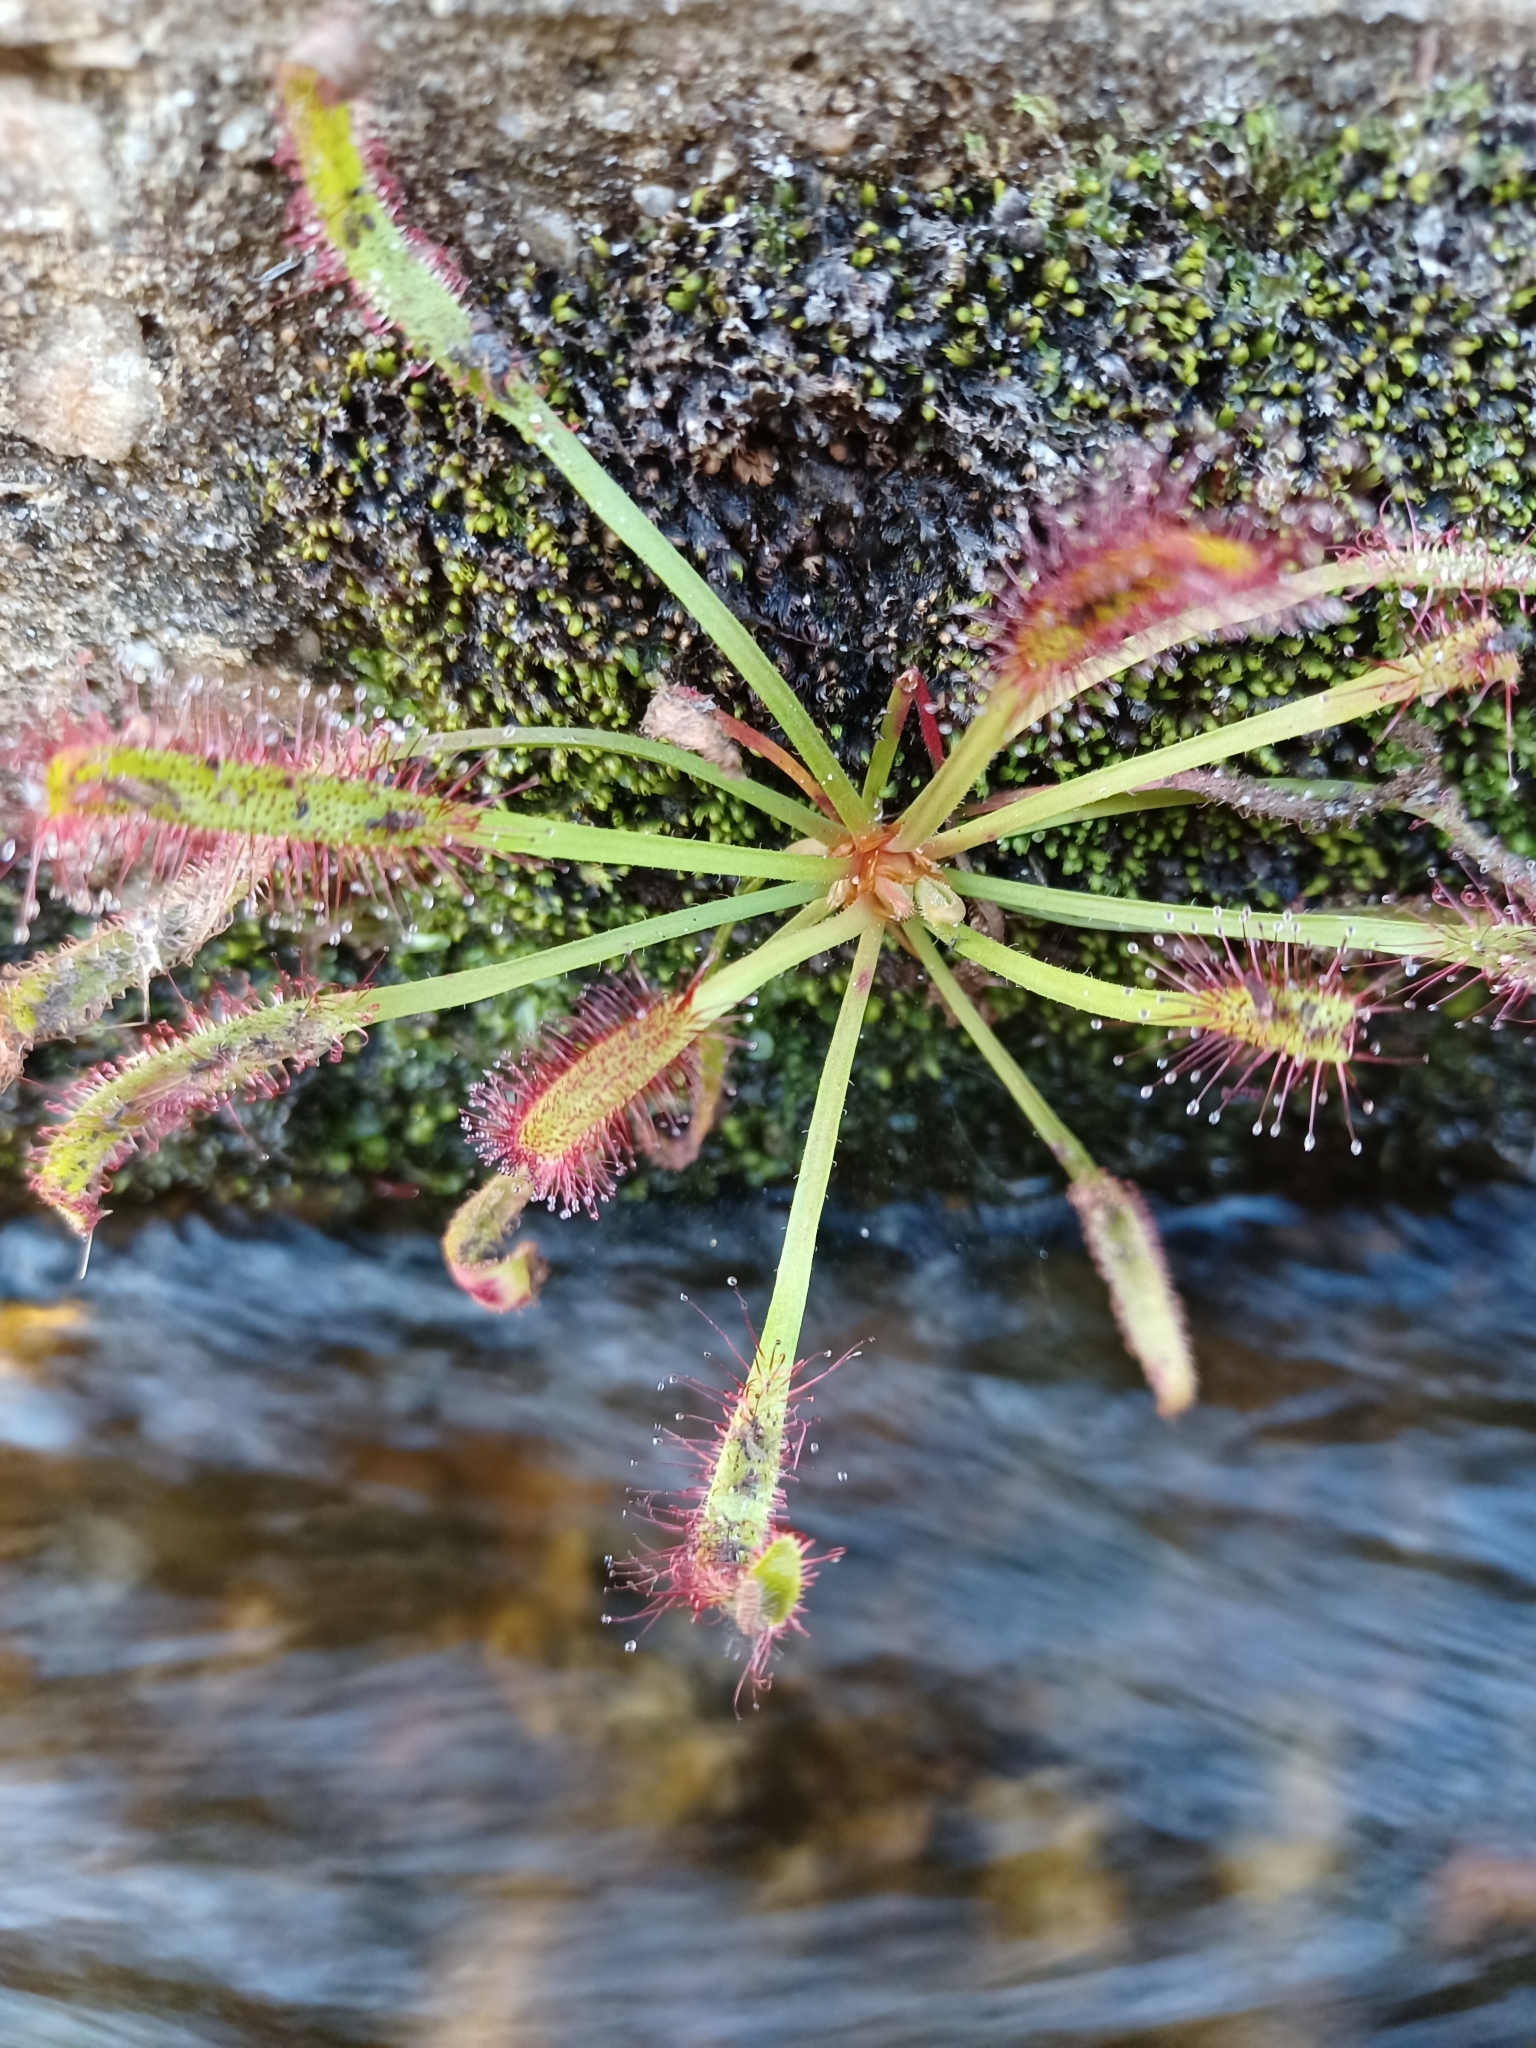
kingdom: Plantae
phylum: Tracheophyta
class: Magnoliopsida
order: Caryophyllales
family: Droseraceae
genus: Drosera
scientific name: Drosera capensis
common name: Cape sundew
